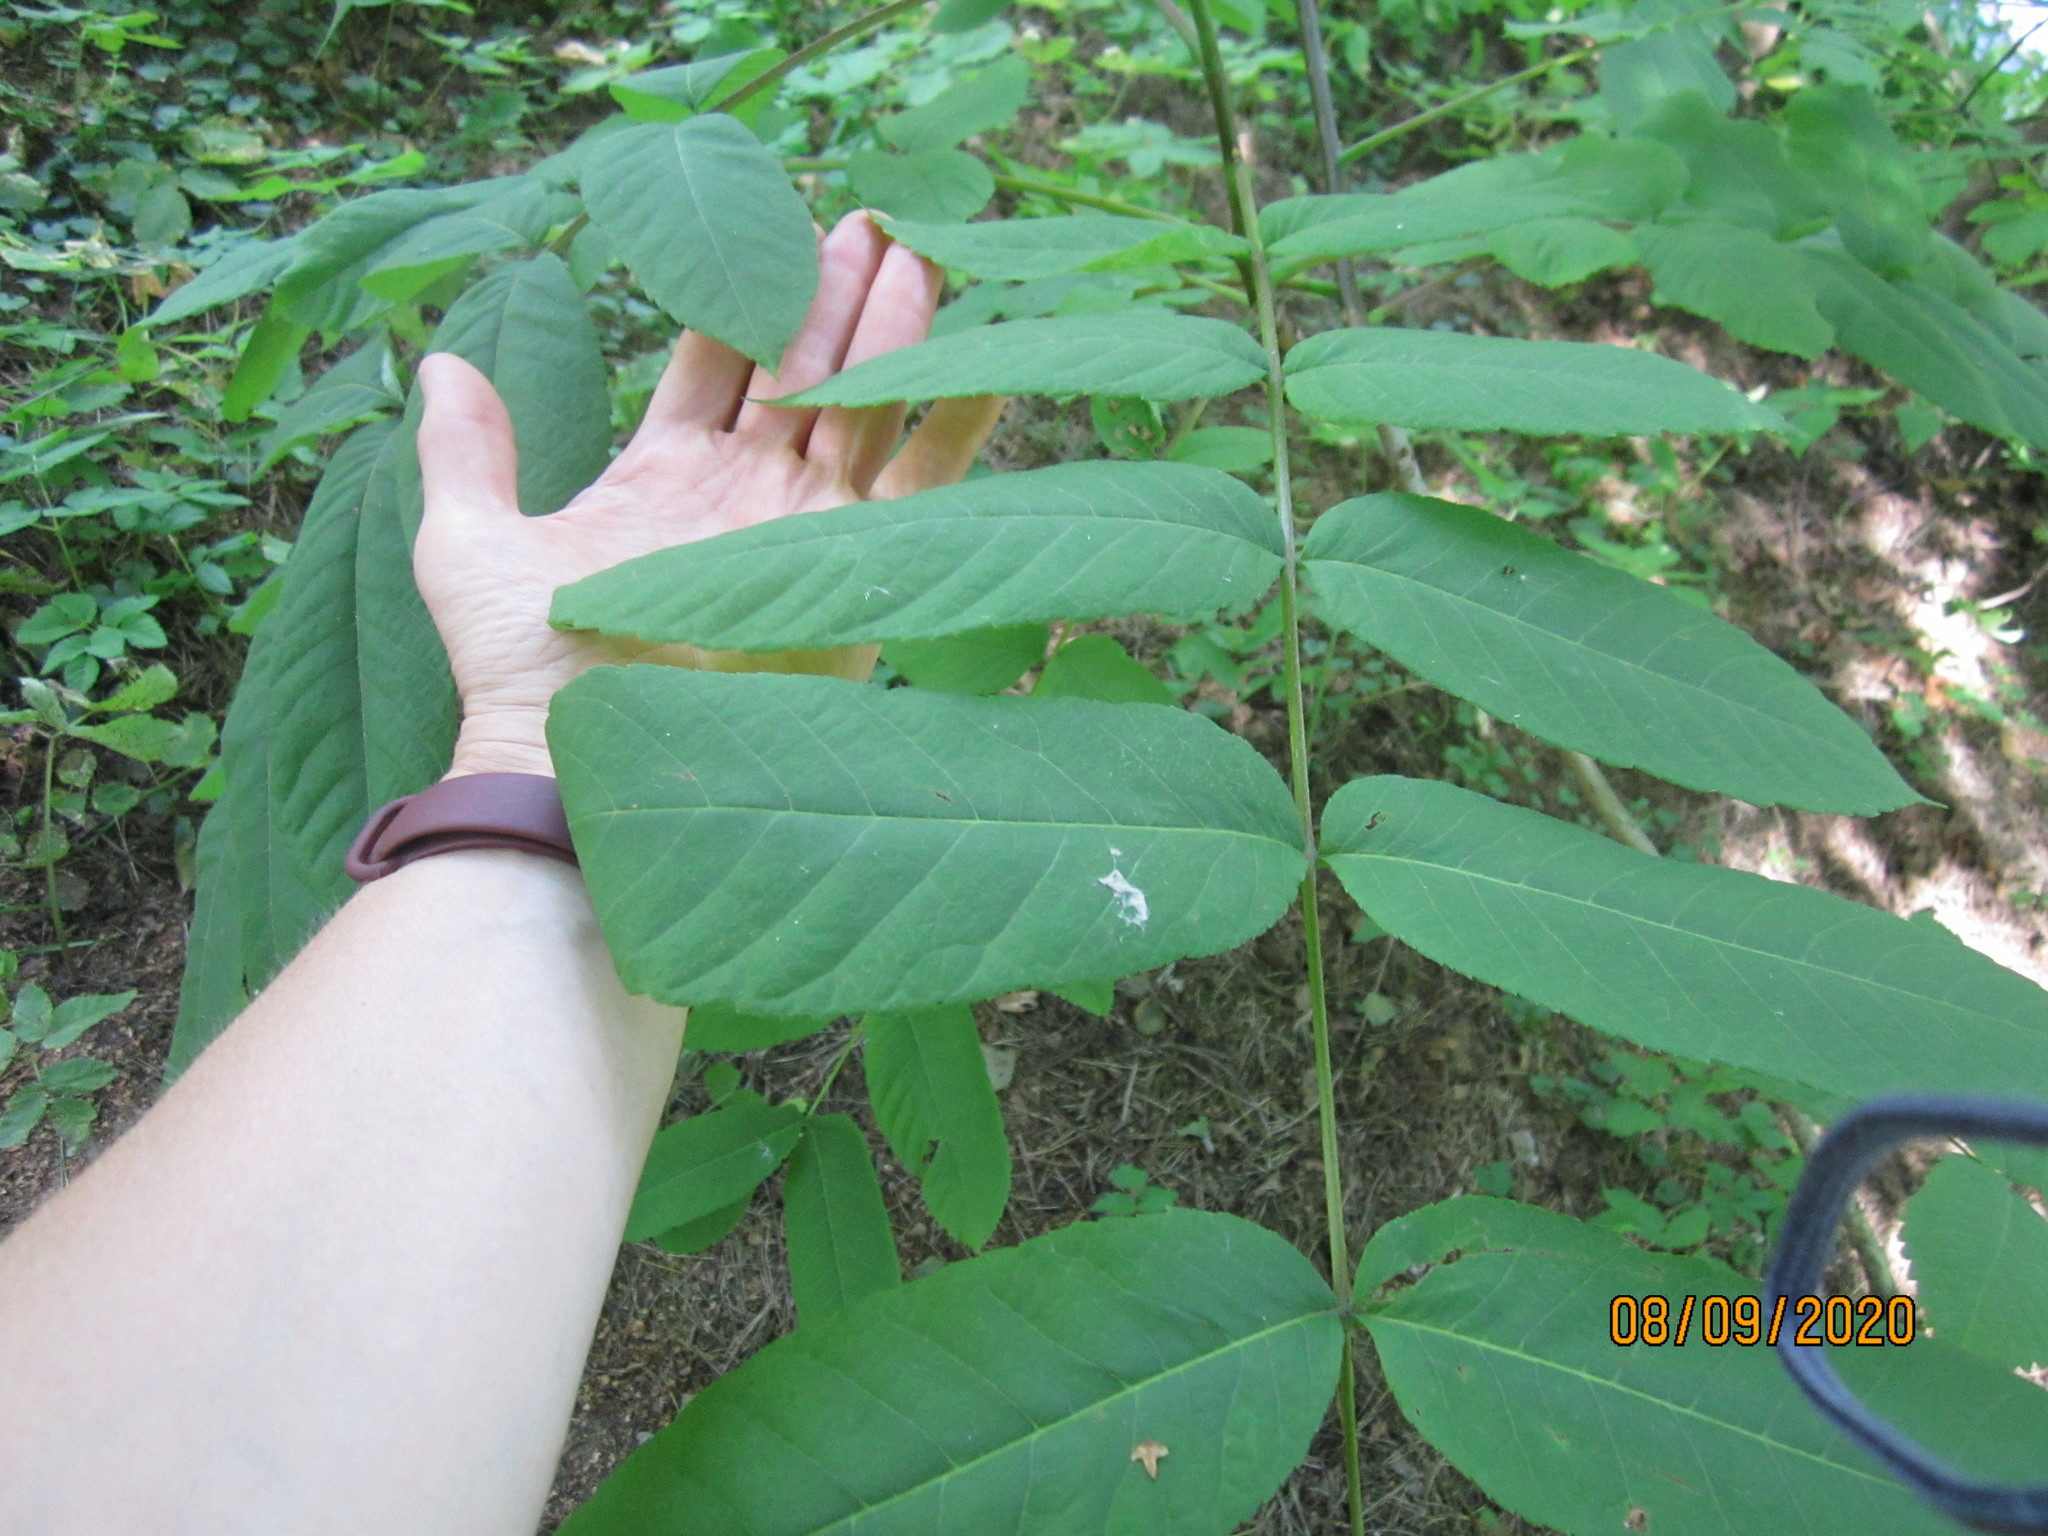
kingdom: Plantae
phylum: Tracheophyta
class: Magnoliopsida
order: Fagales
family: Juglandaceae
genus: Juglans
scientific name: Juglans mandshurica
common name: Manchurian walnut
